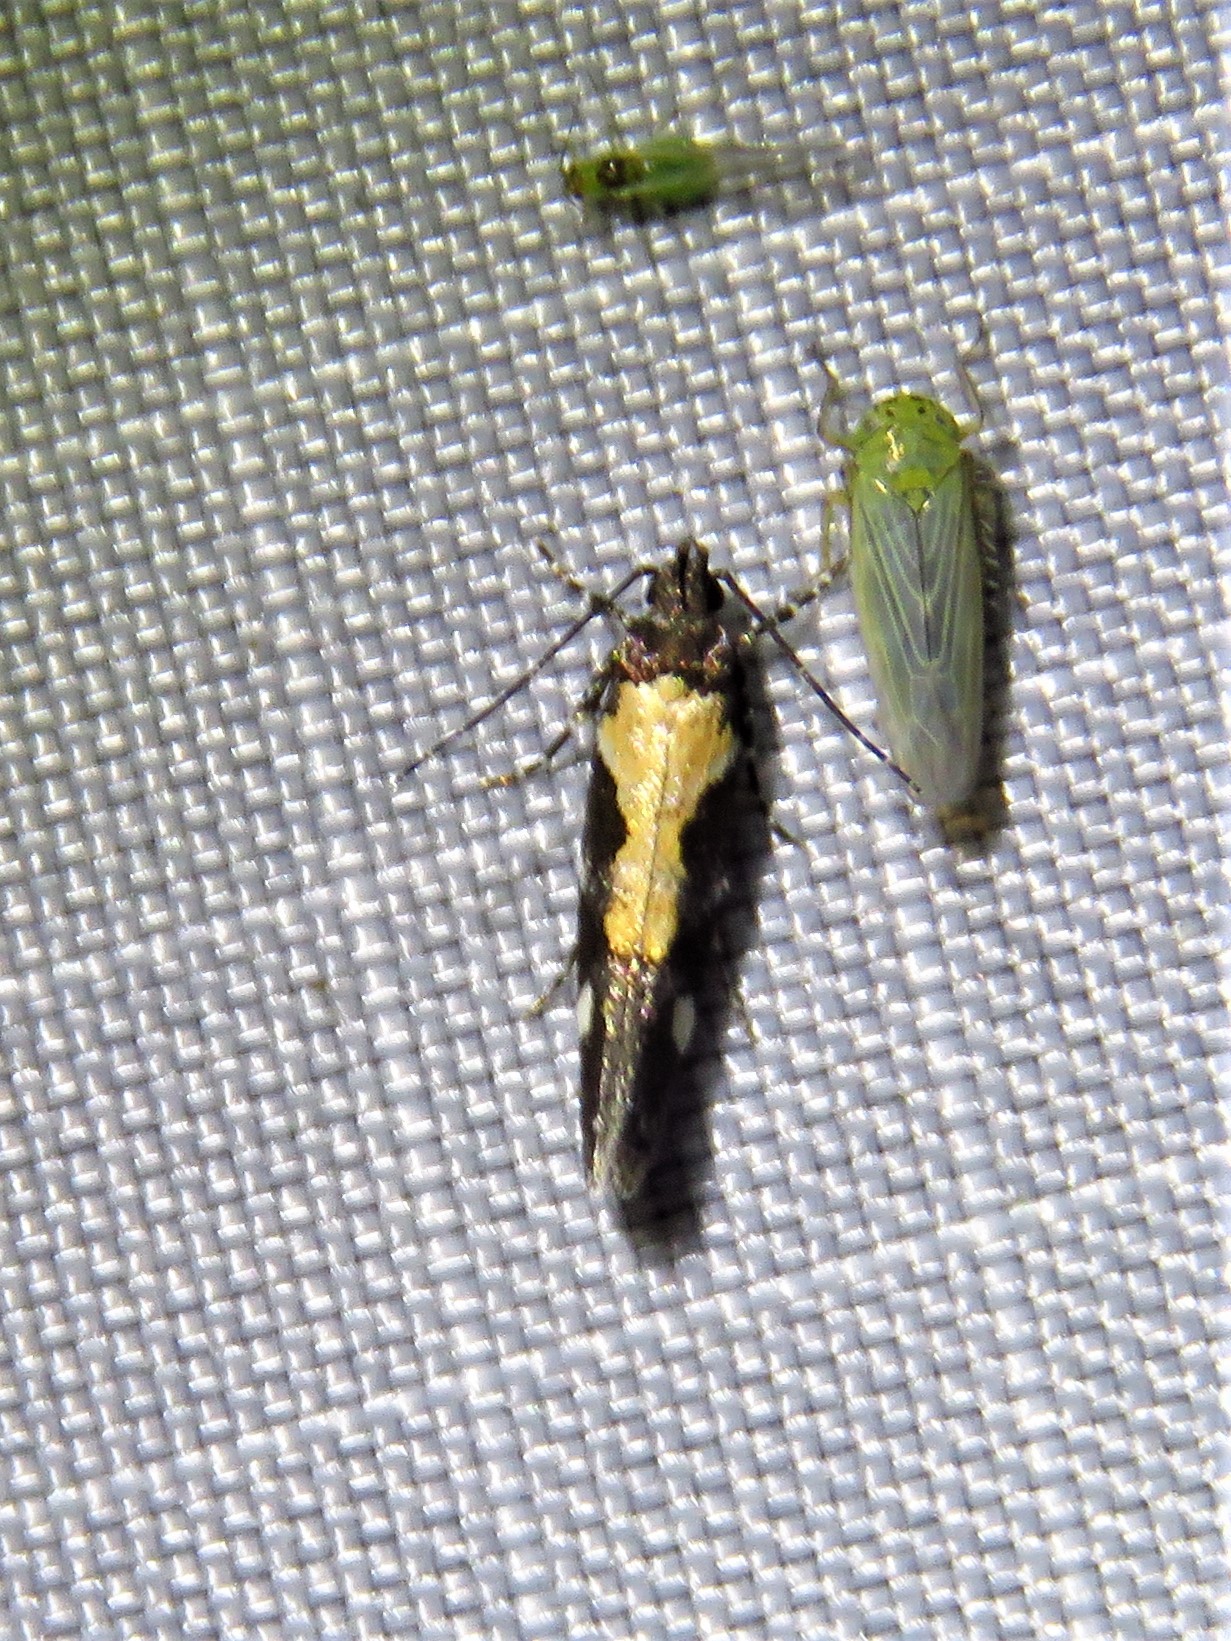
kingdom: Animalia
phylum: Arthropoda
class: Insecta
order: Lepidoptera
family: Gelechiidae
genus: Stegasta
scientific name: Stegasta bosqueella
